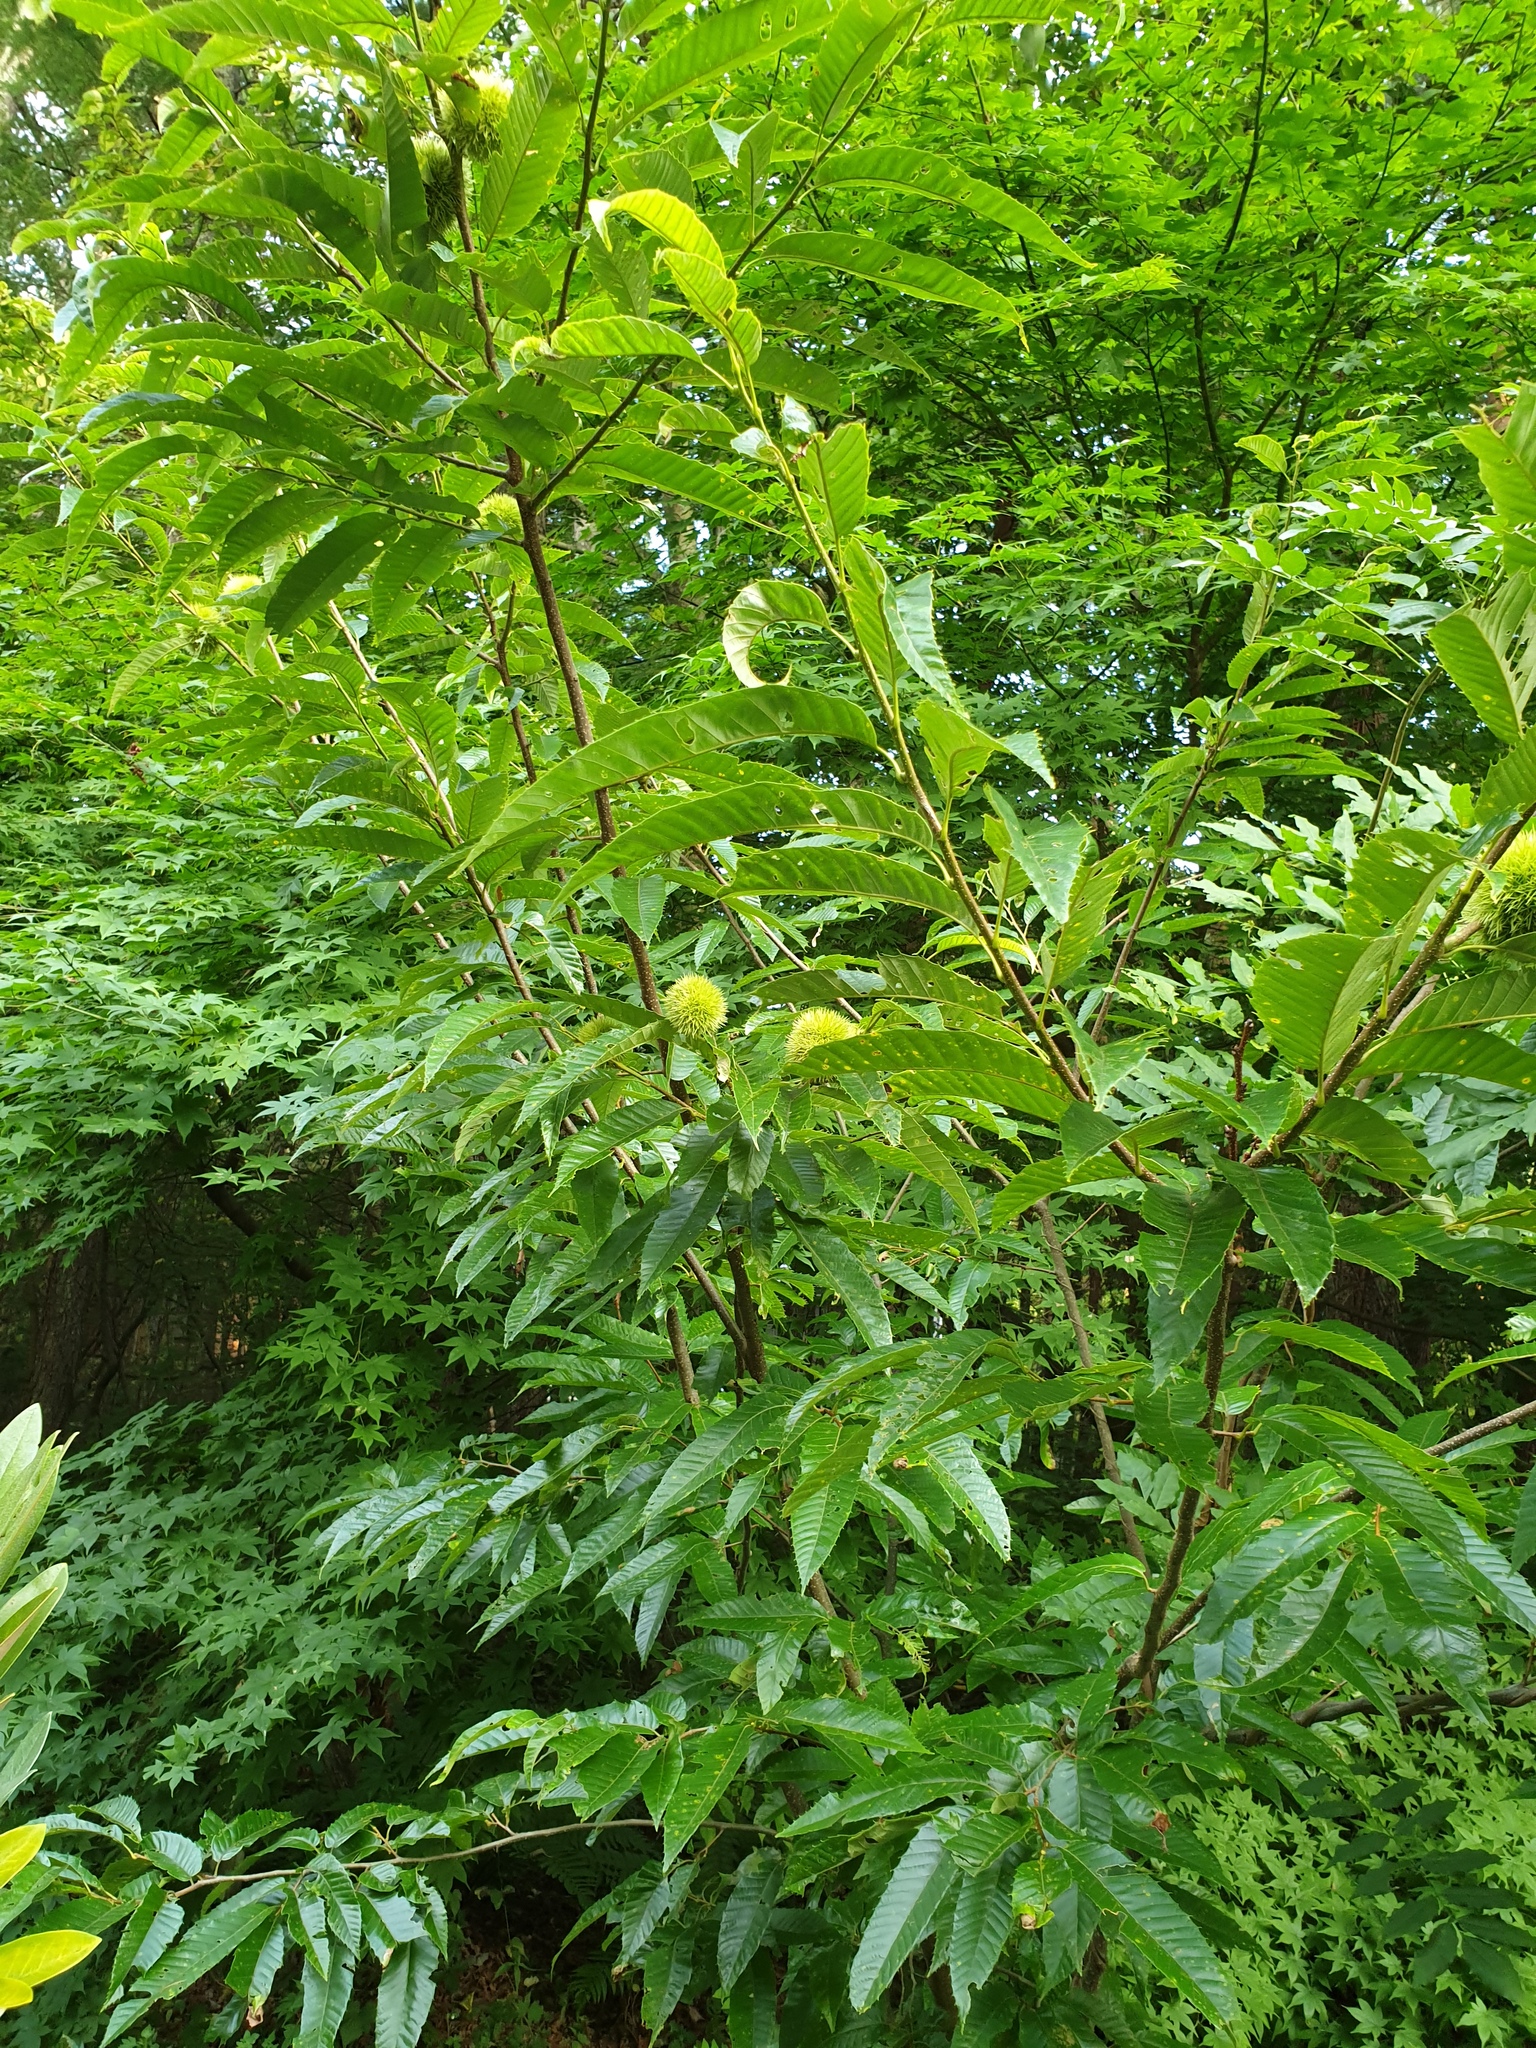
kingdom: Plantae
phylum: Tracheophyta
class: Magnoliopsida
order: Fagales
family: Fagaceae
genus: Castanea
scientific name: Castanea crenata
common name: Japanese chestnut
